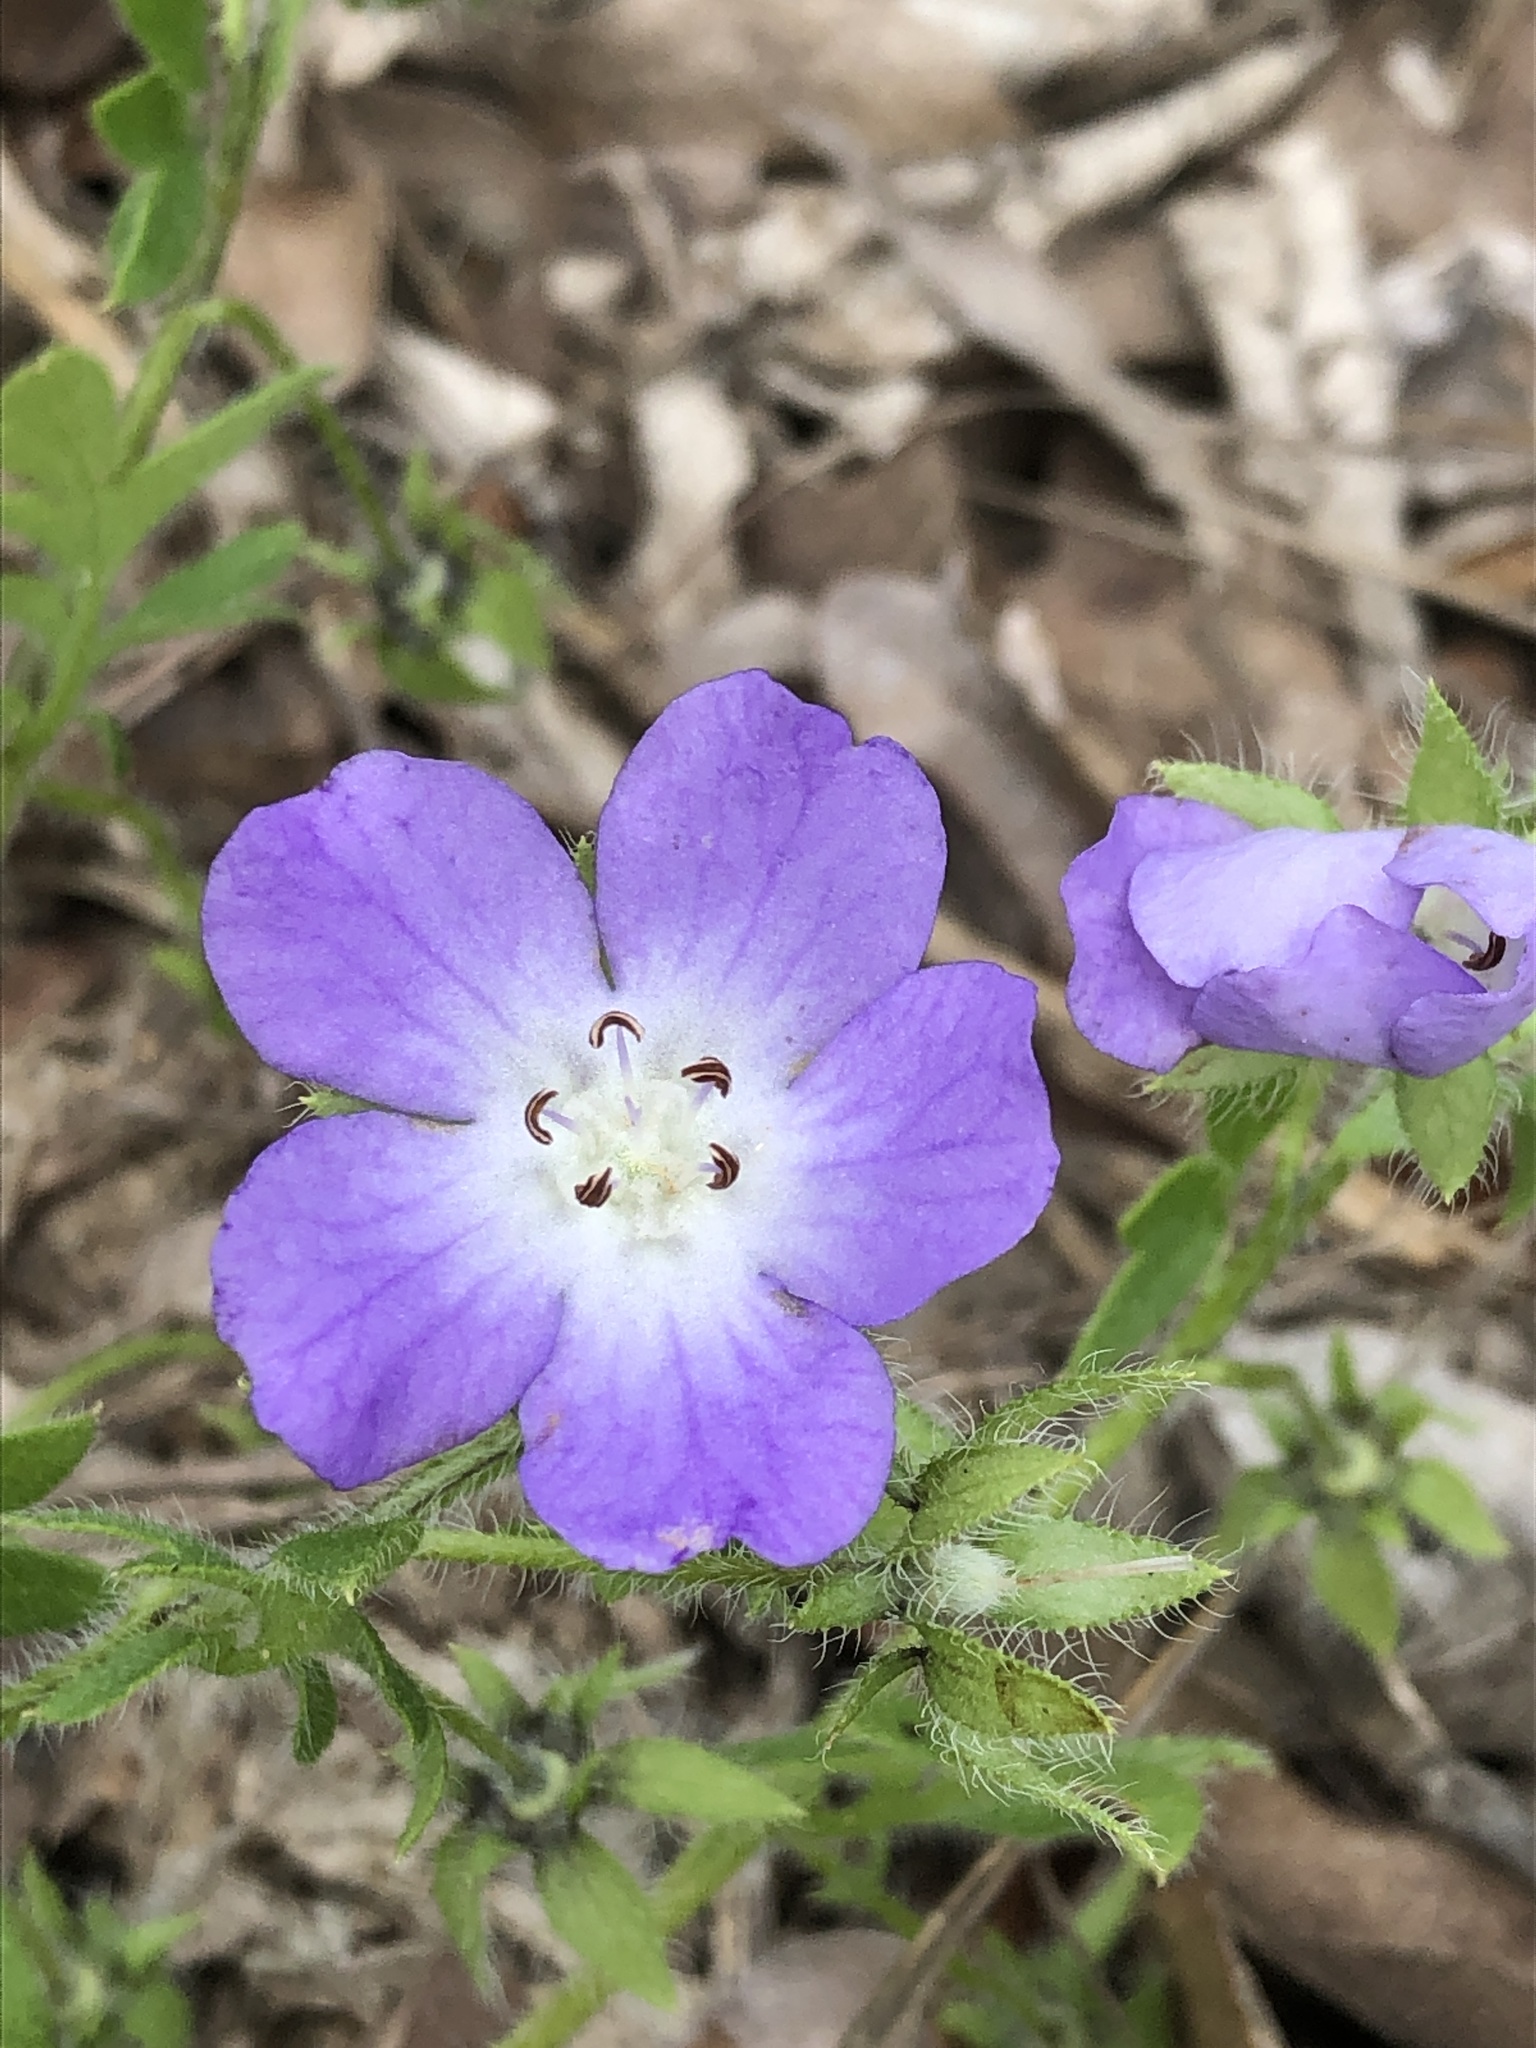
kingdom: Plantae
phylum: Tracheophyta
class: Magnoliopsida
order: Boraginales
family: Hydrophyllaceae
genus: Nemophila
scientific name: Nemophila phacelioides
